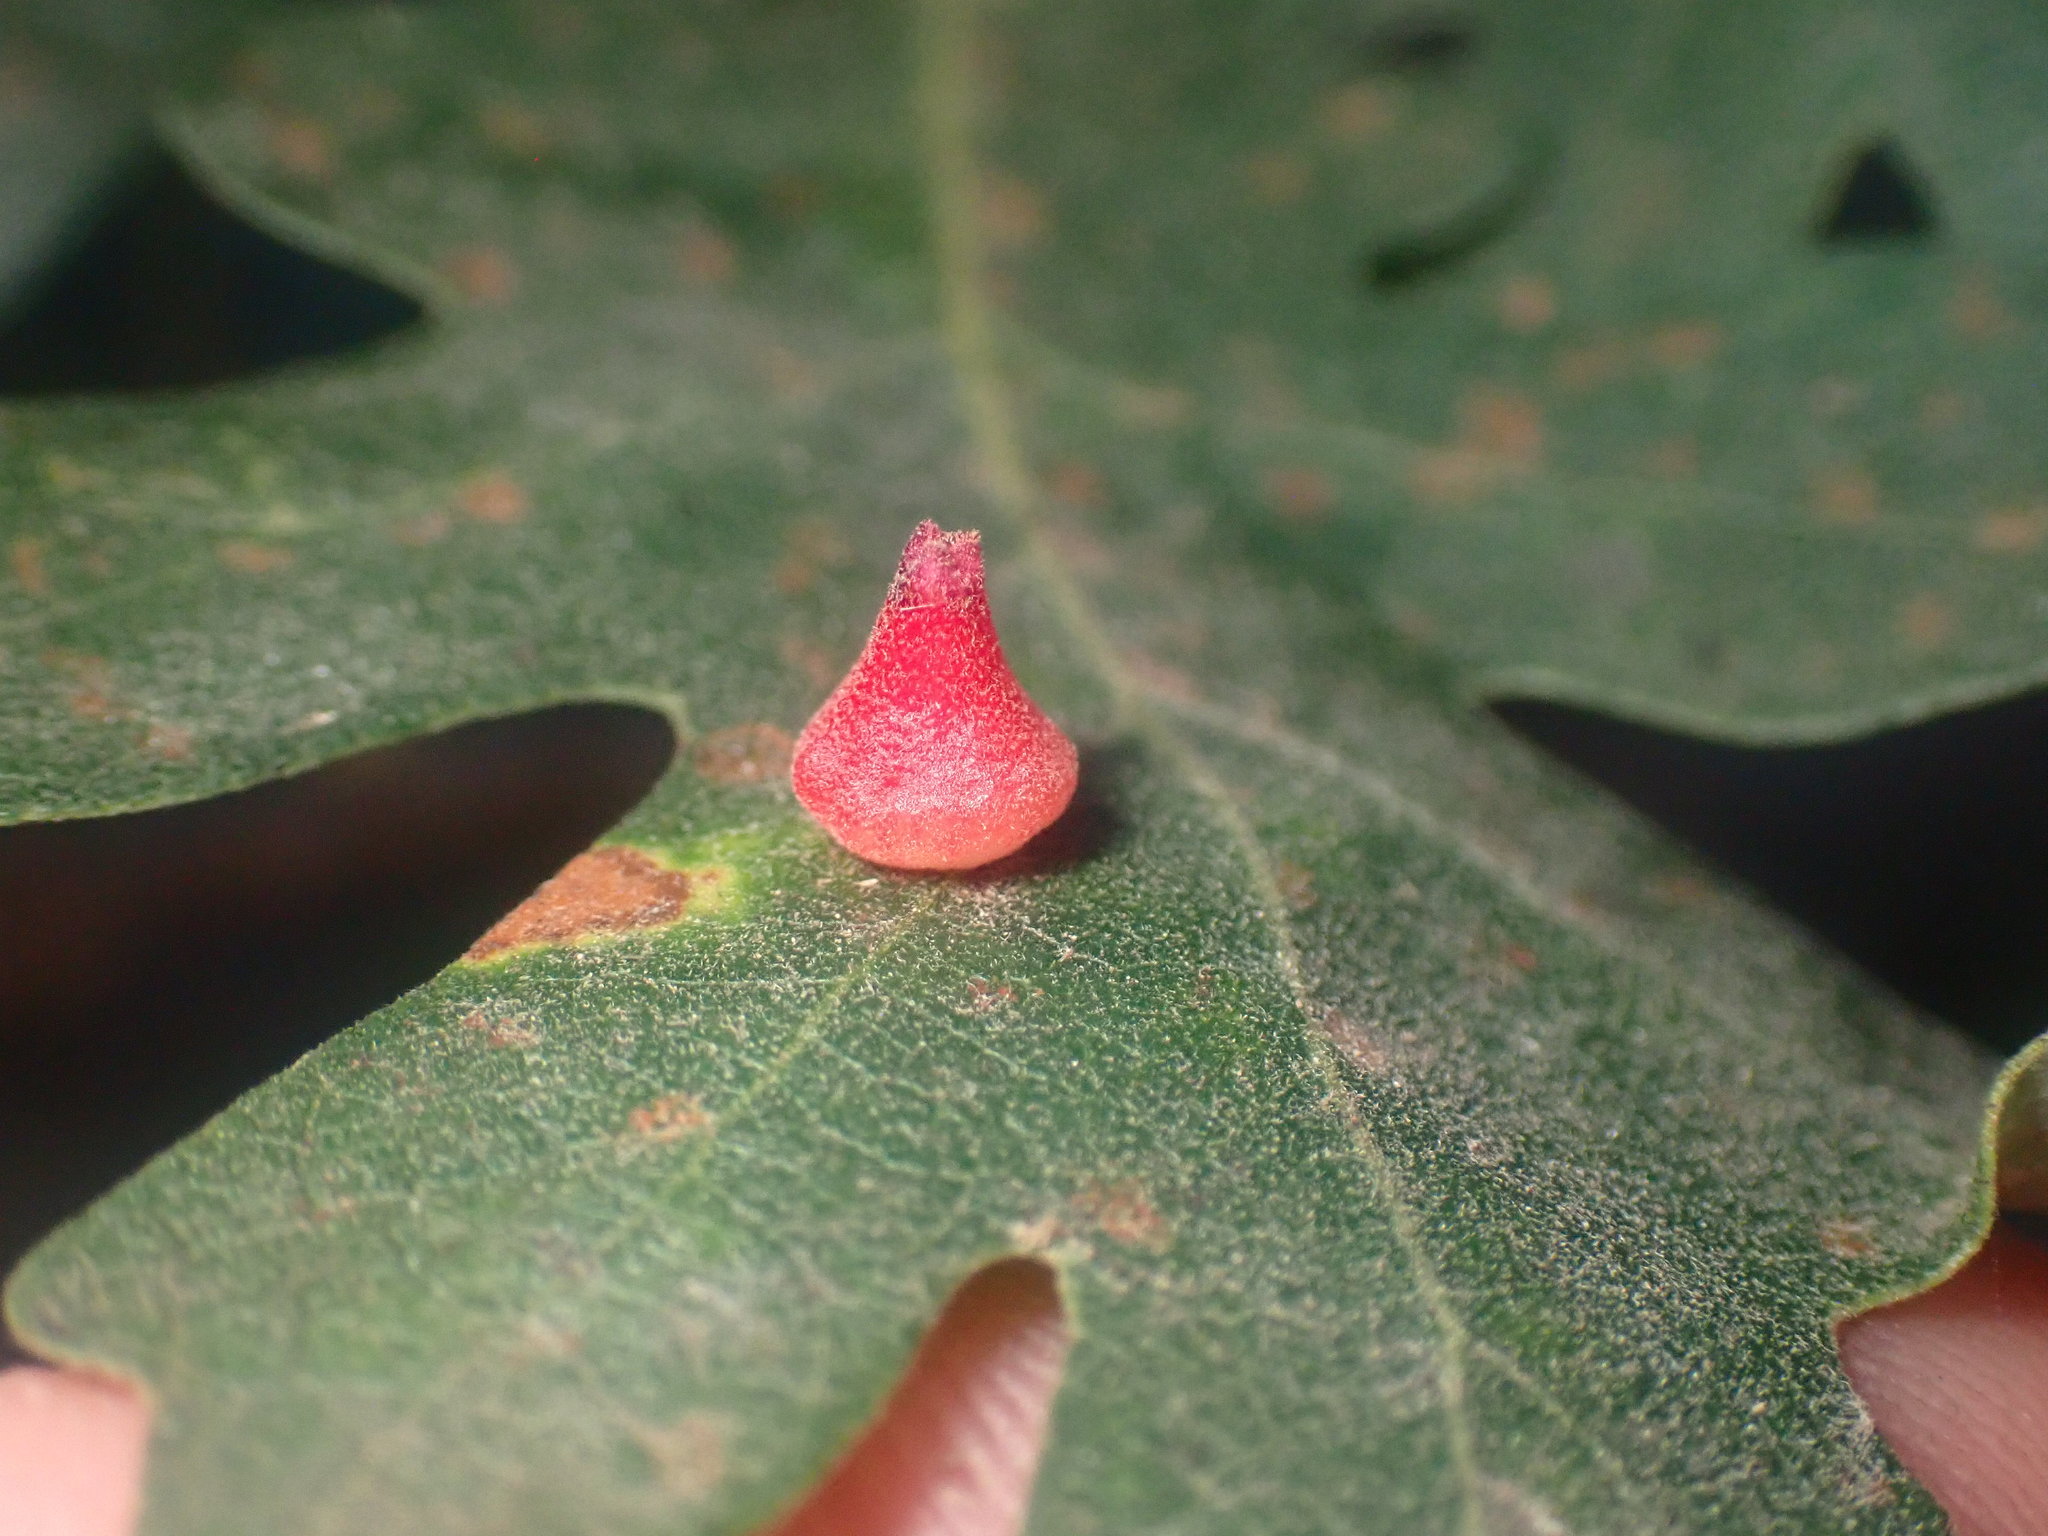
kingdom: Animalia
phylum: Arthropoda
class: Insecta
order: Hymenoptera
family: Cynipidae
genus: Andricus
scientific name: Andricus
